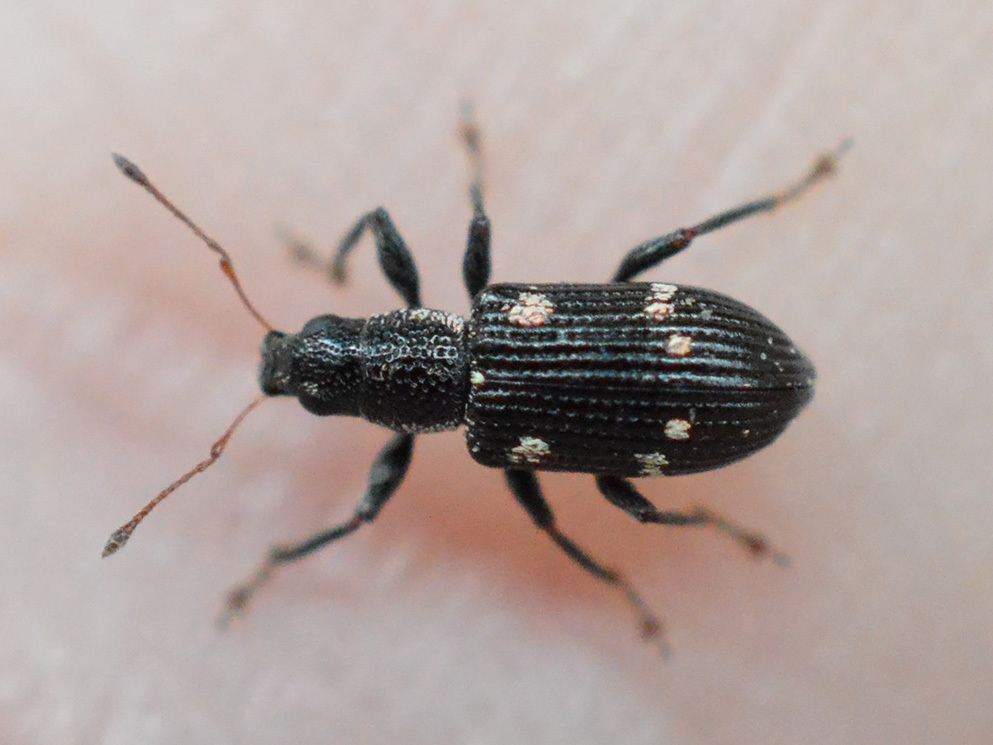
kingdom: Animalia
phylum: Arthropoda
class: Insecta
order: Coleoptera
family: Curculionidae
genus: Polydrusus
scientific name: Polydrusus picus
